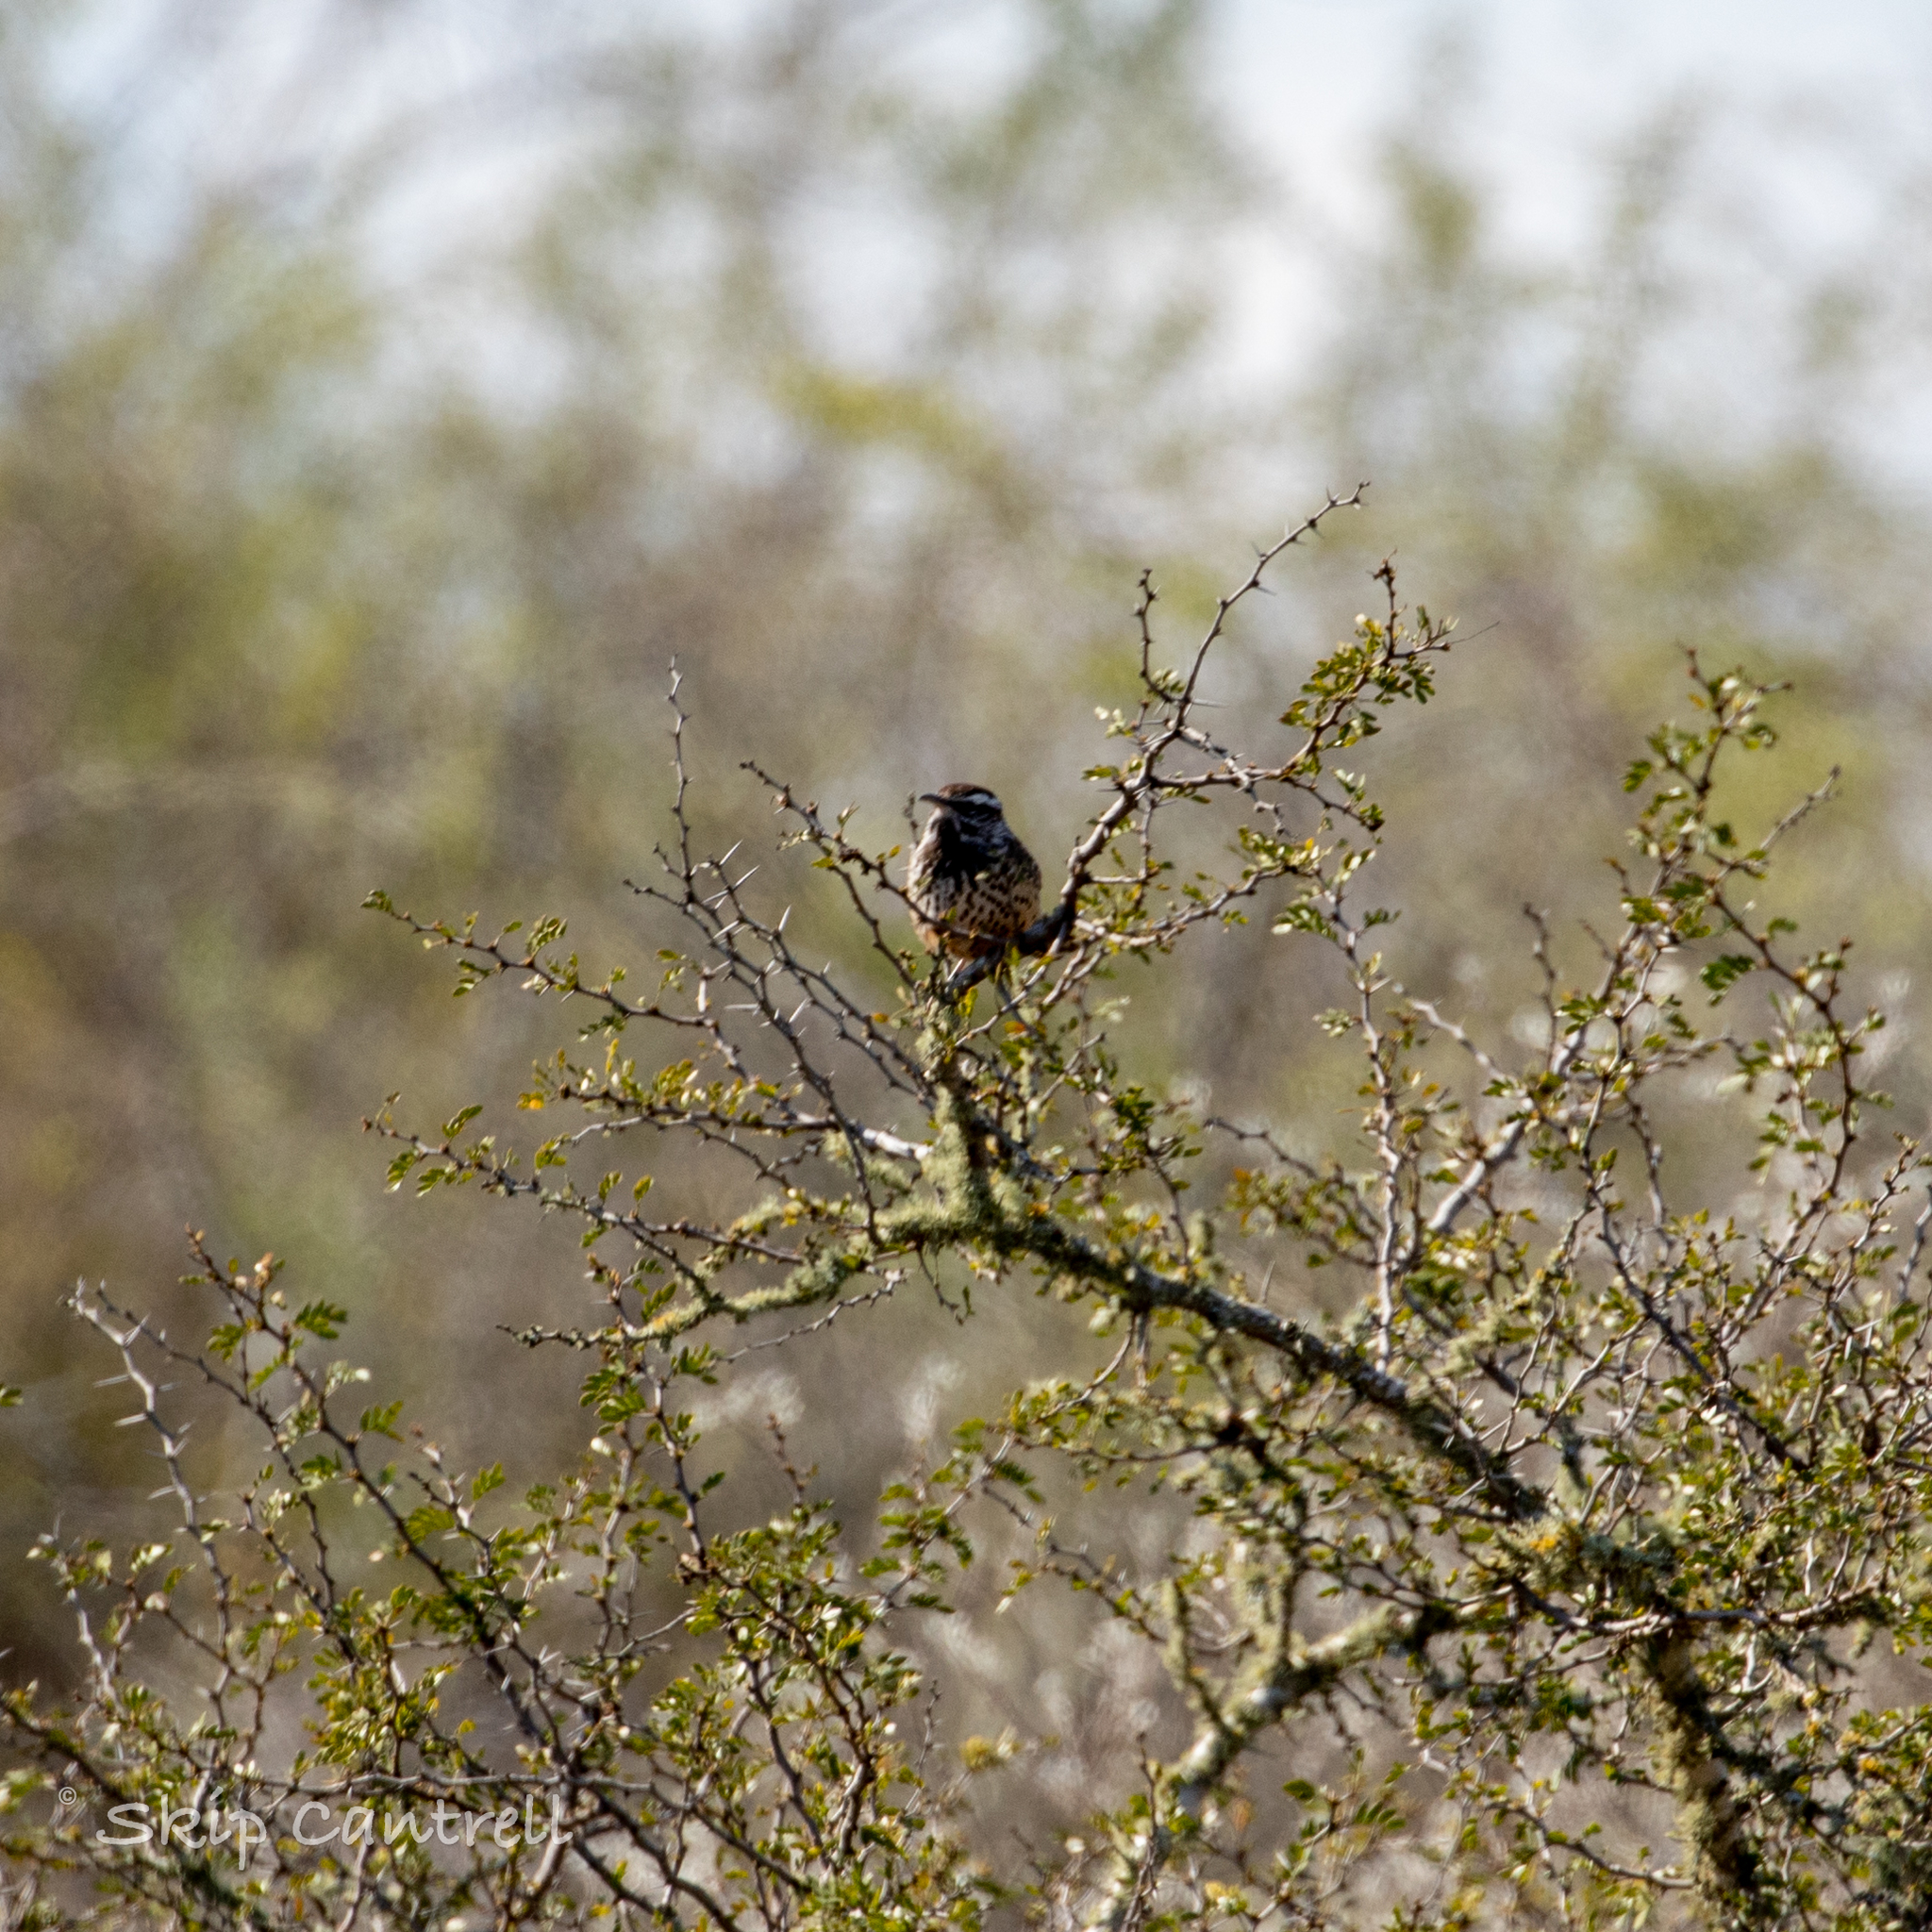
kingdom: Animalia
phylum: Chordata
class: Aves
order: Passeriformes
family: Troglodytidae
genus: Campylorhynchus
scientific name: Campylorhynchus brunneicapillus
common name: Cactus wren
